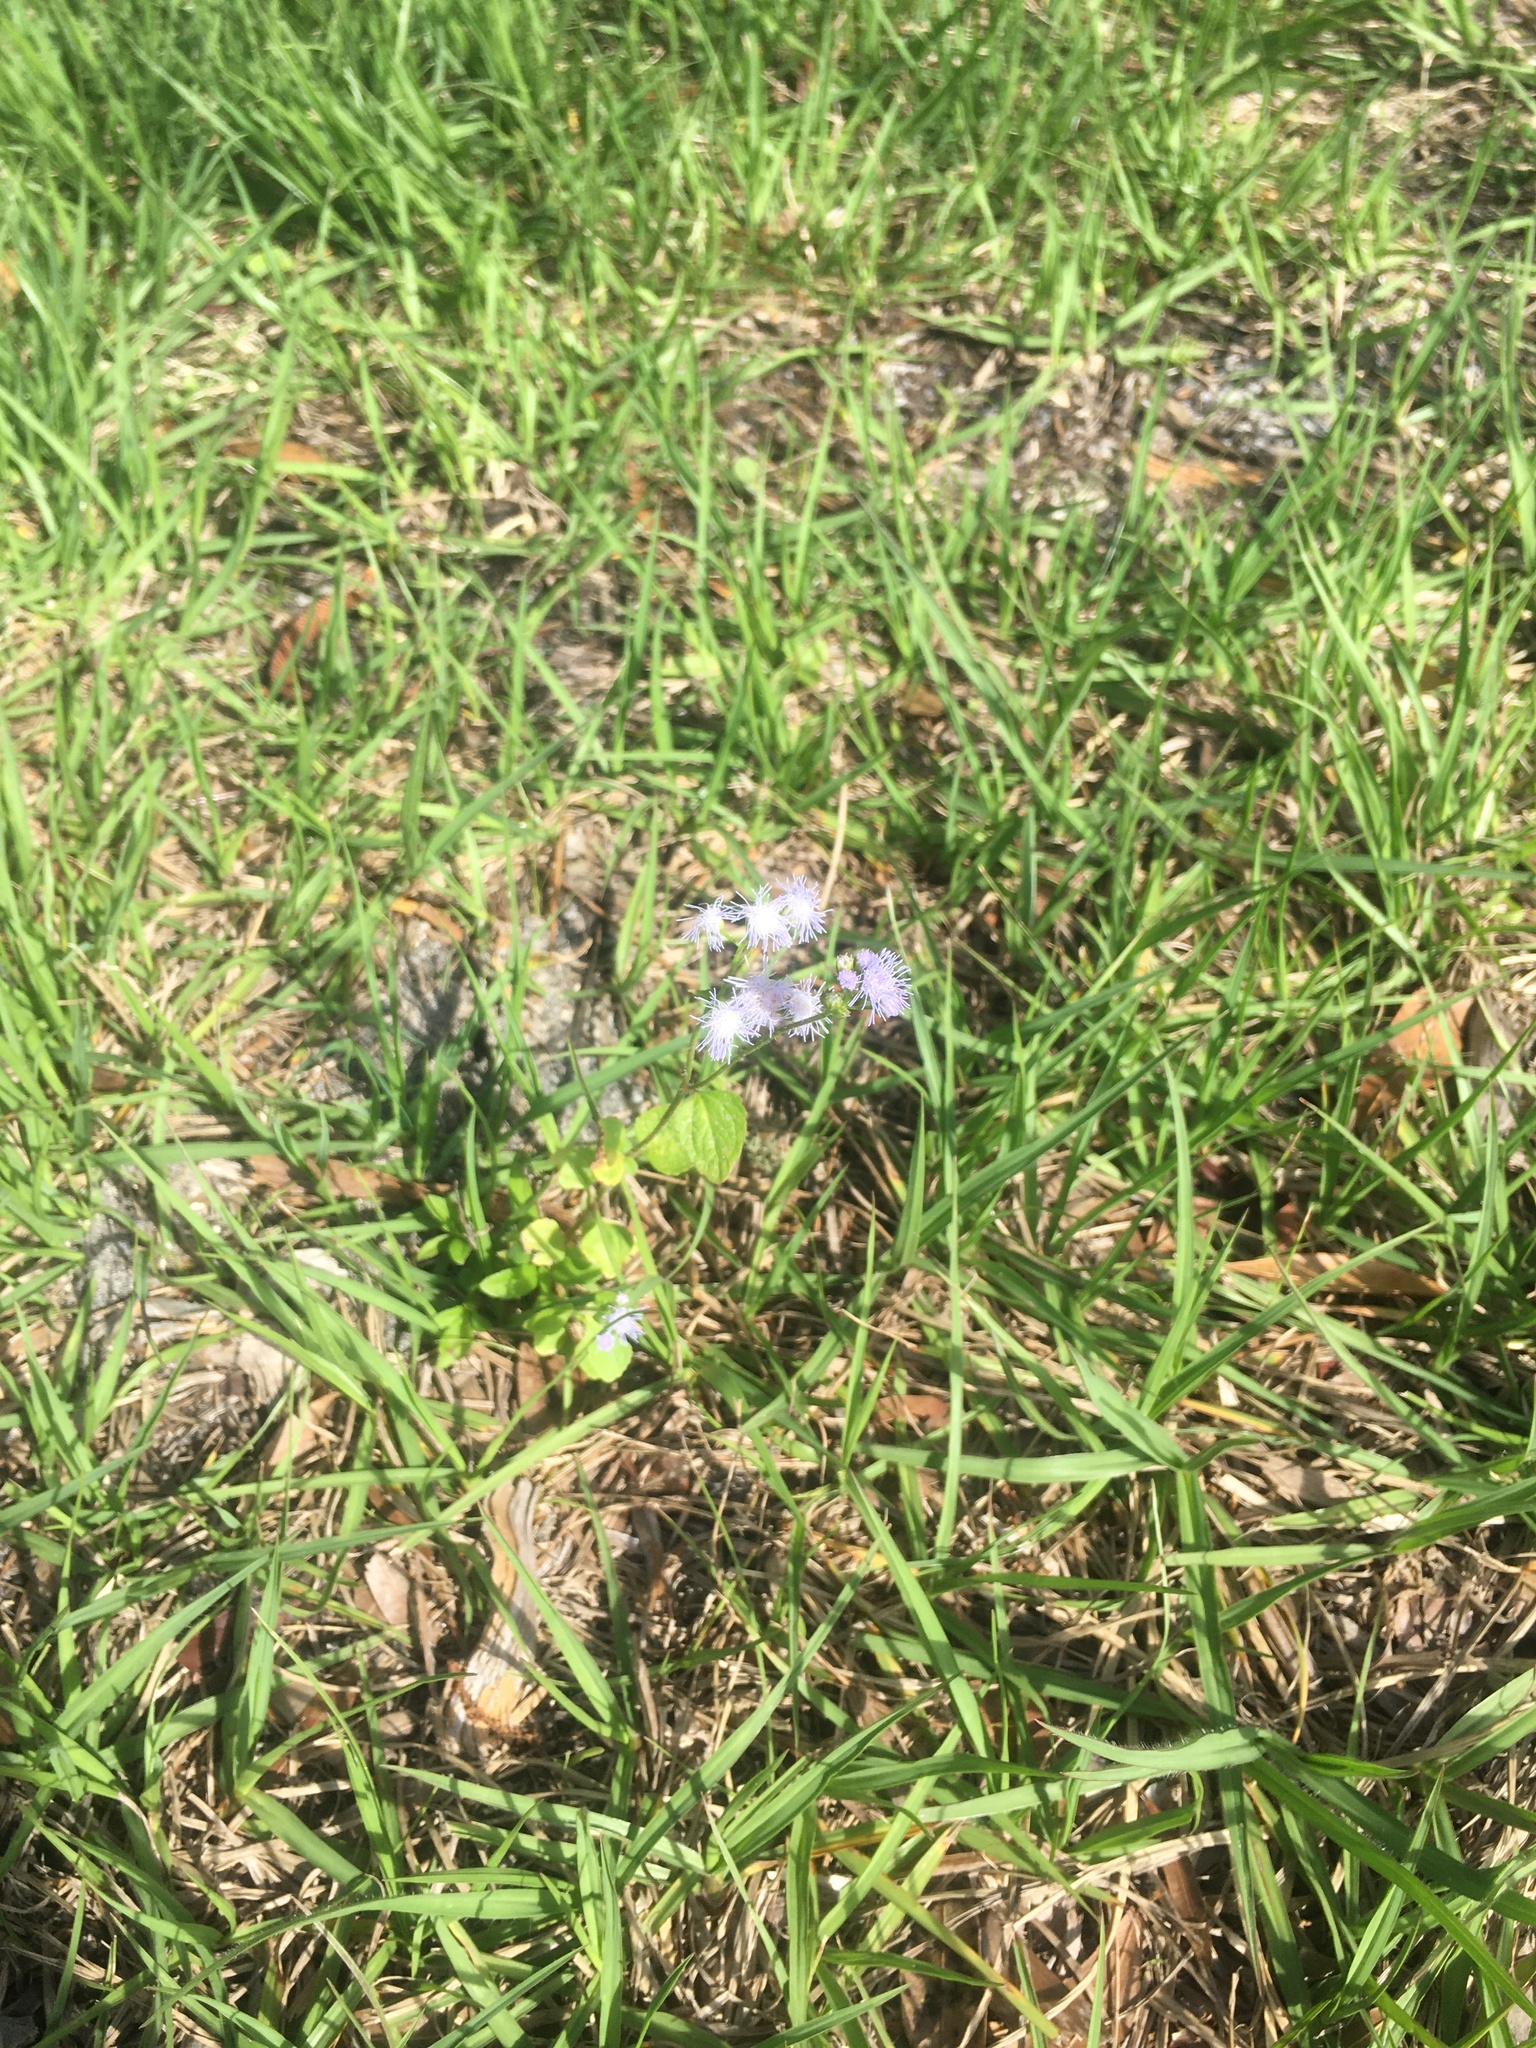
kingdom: Plantae
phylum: Tracheophyta
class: Magnoliopsida
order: Asterales
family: Asteraceae
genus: Ageratum
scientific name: Ageratum houstonianum
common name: Bluemink
